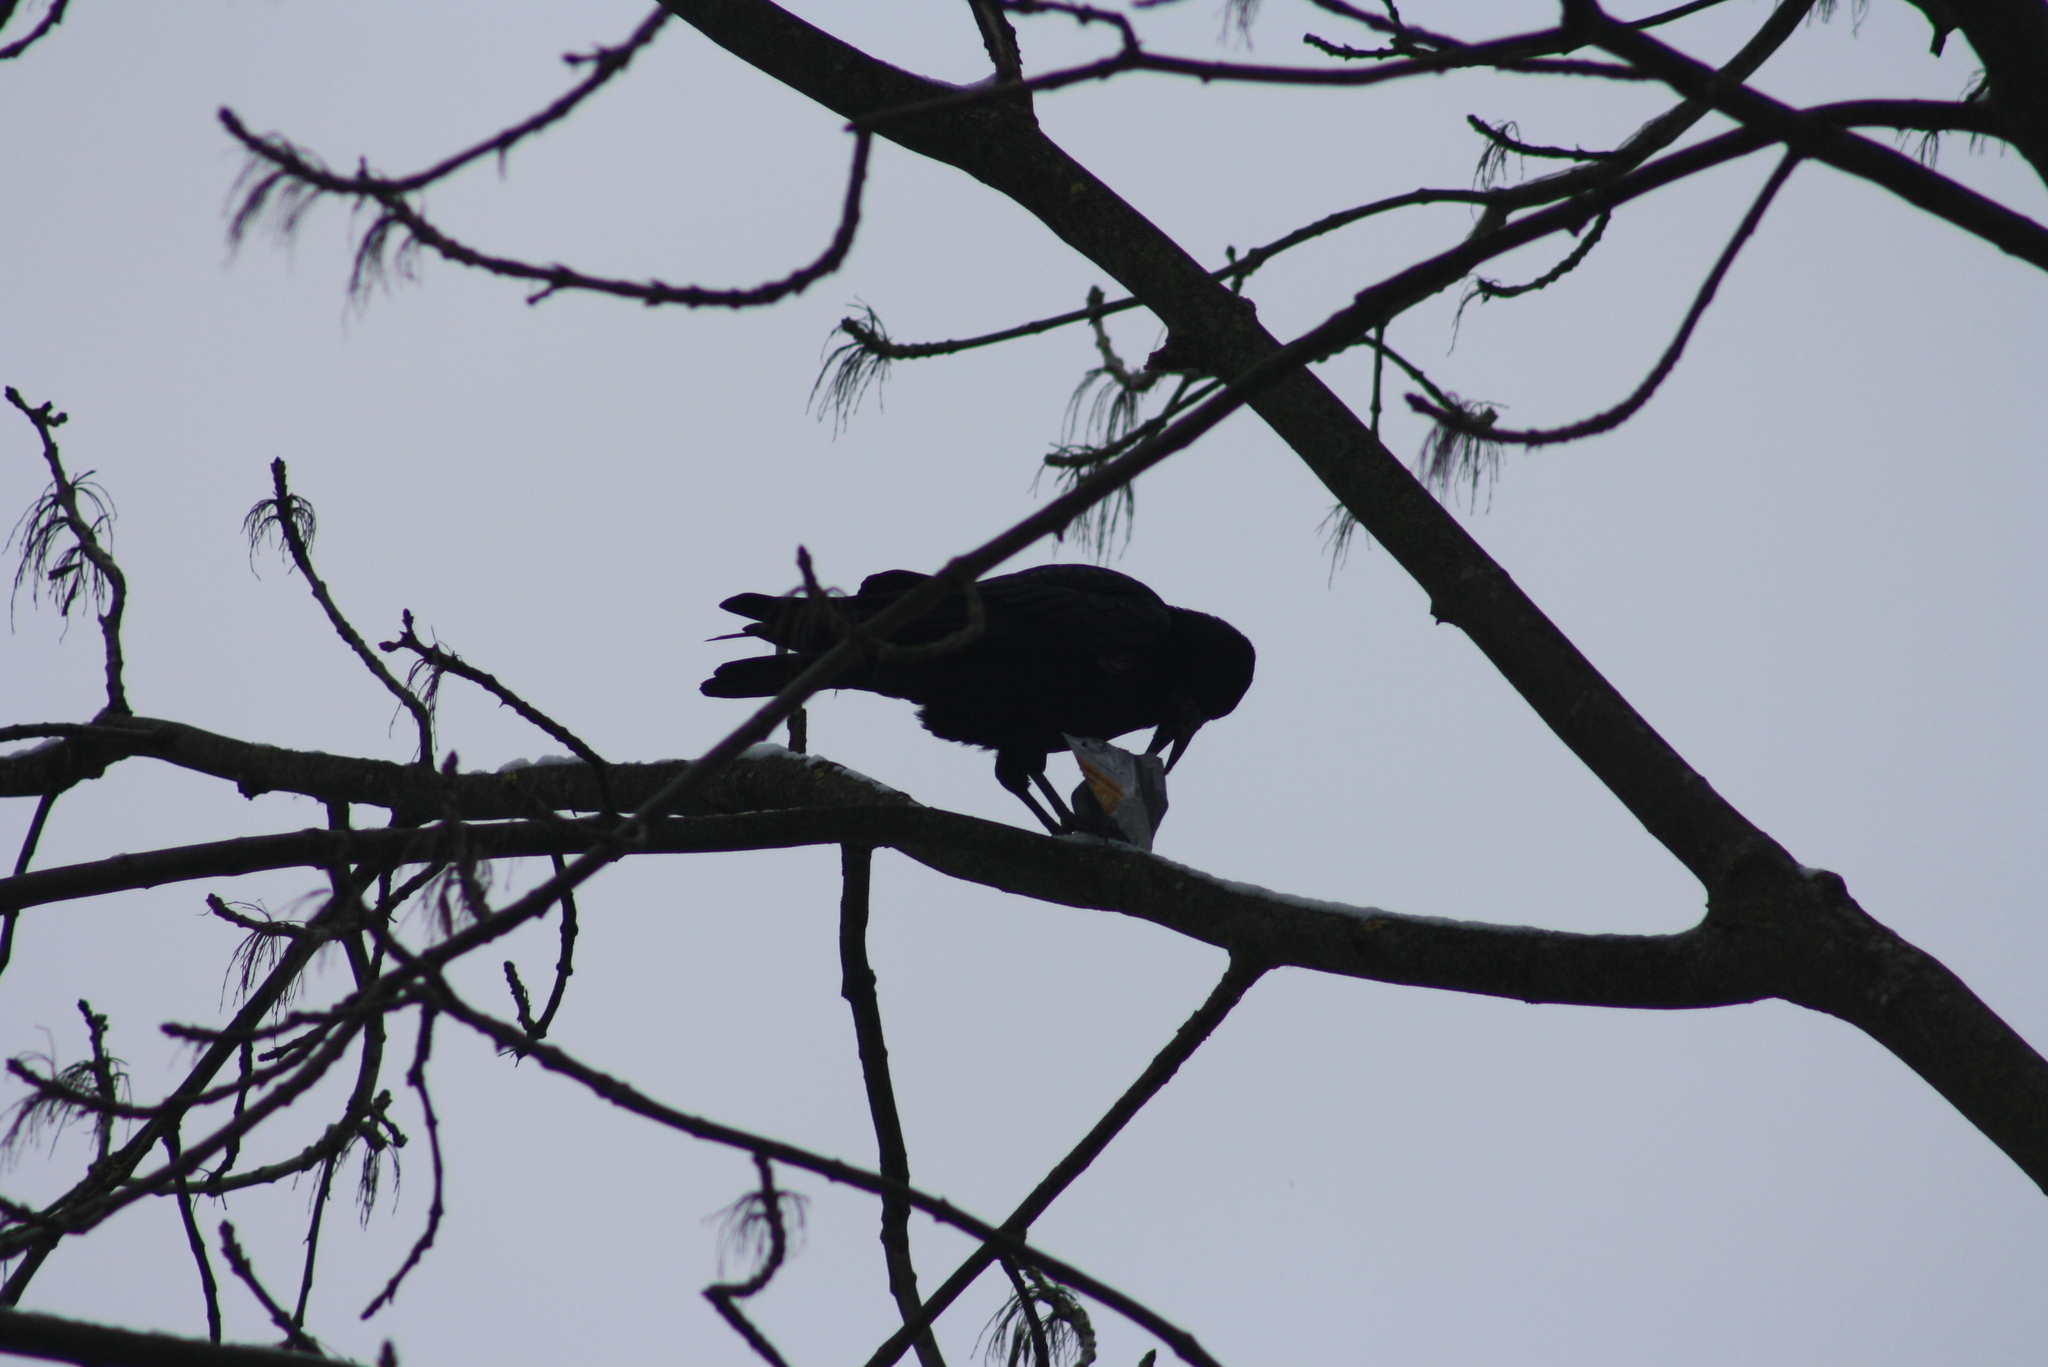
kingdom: Animalia
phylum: Chordata
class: Aves
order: Passeriformes
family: Corvidae
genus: Corvus
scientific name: Corvus frugilegus
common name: Rook
